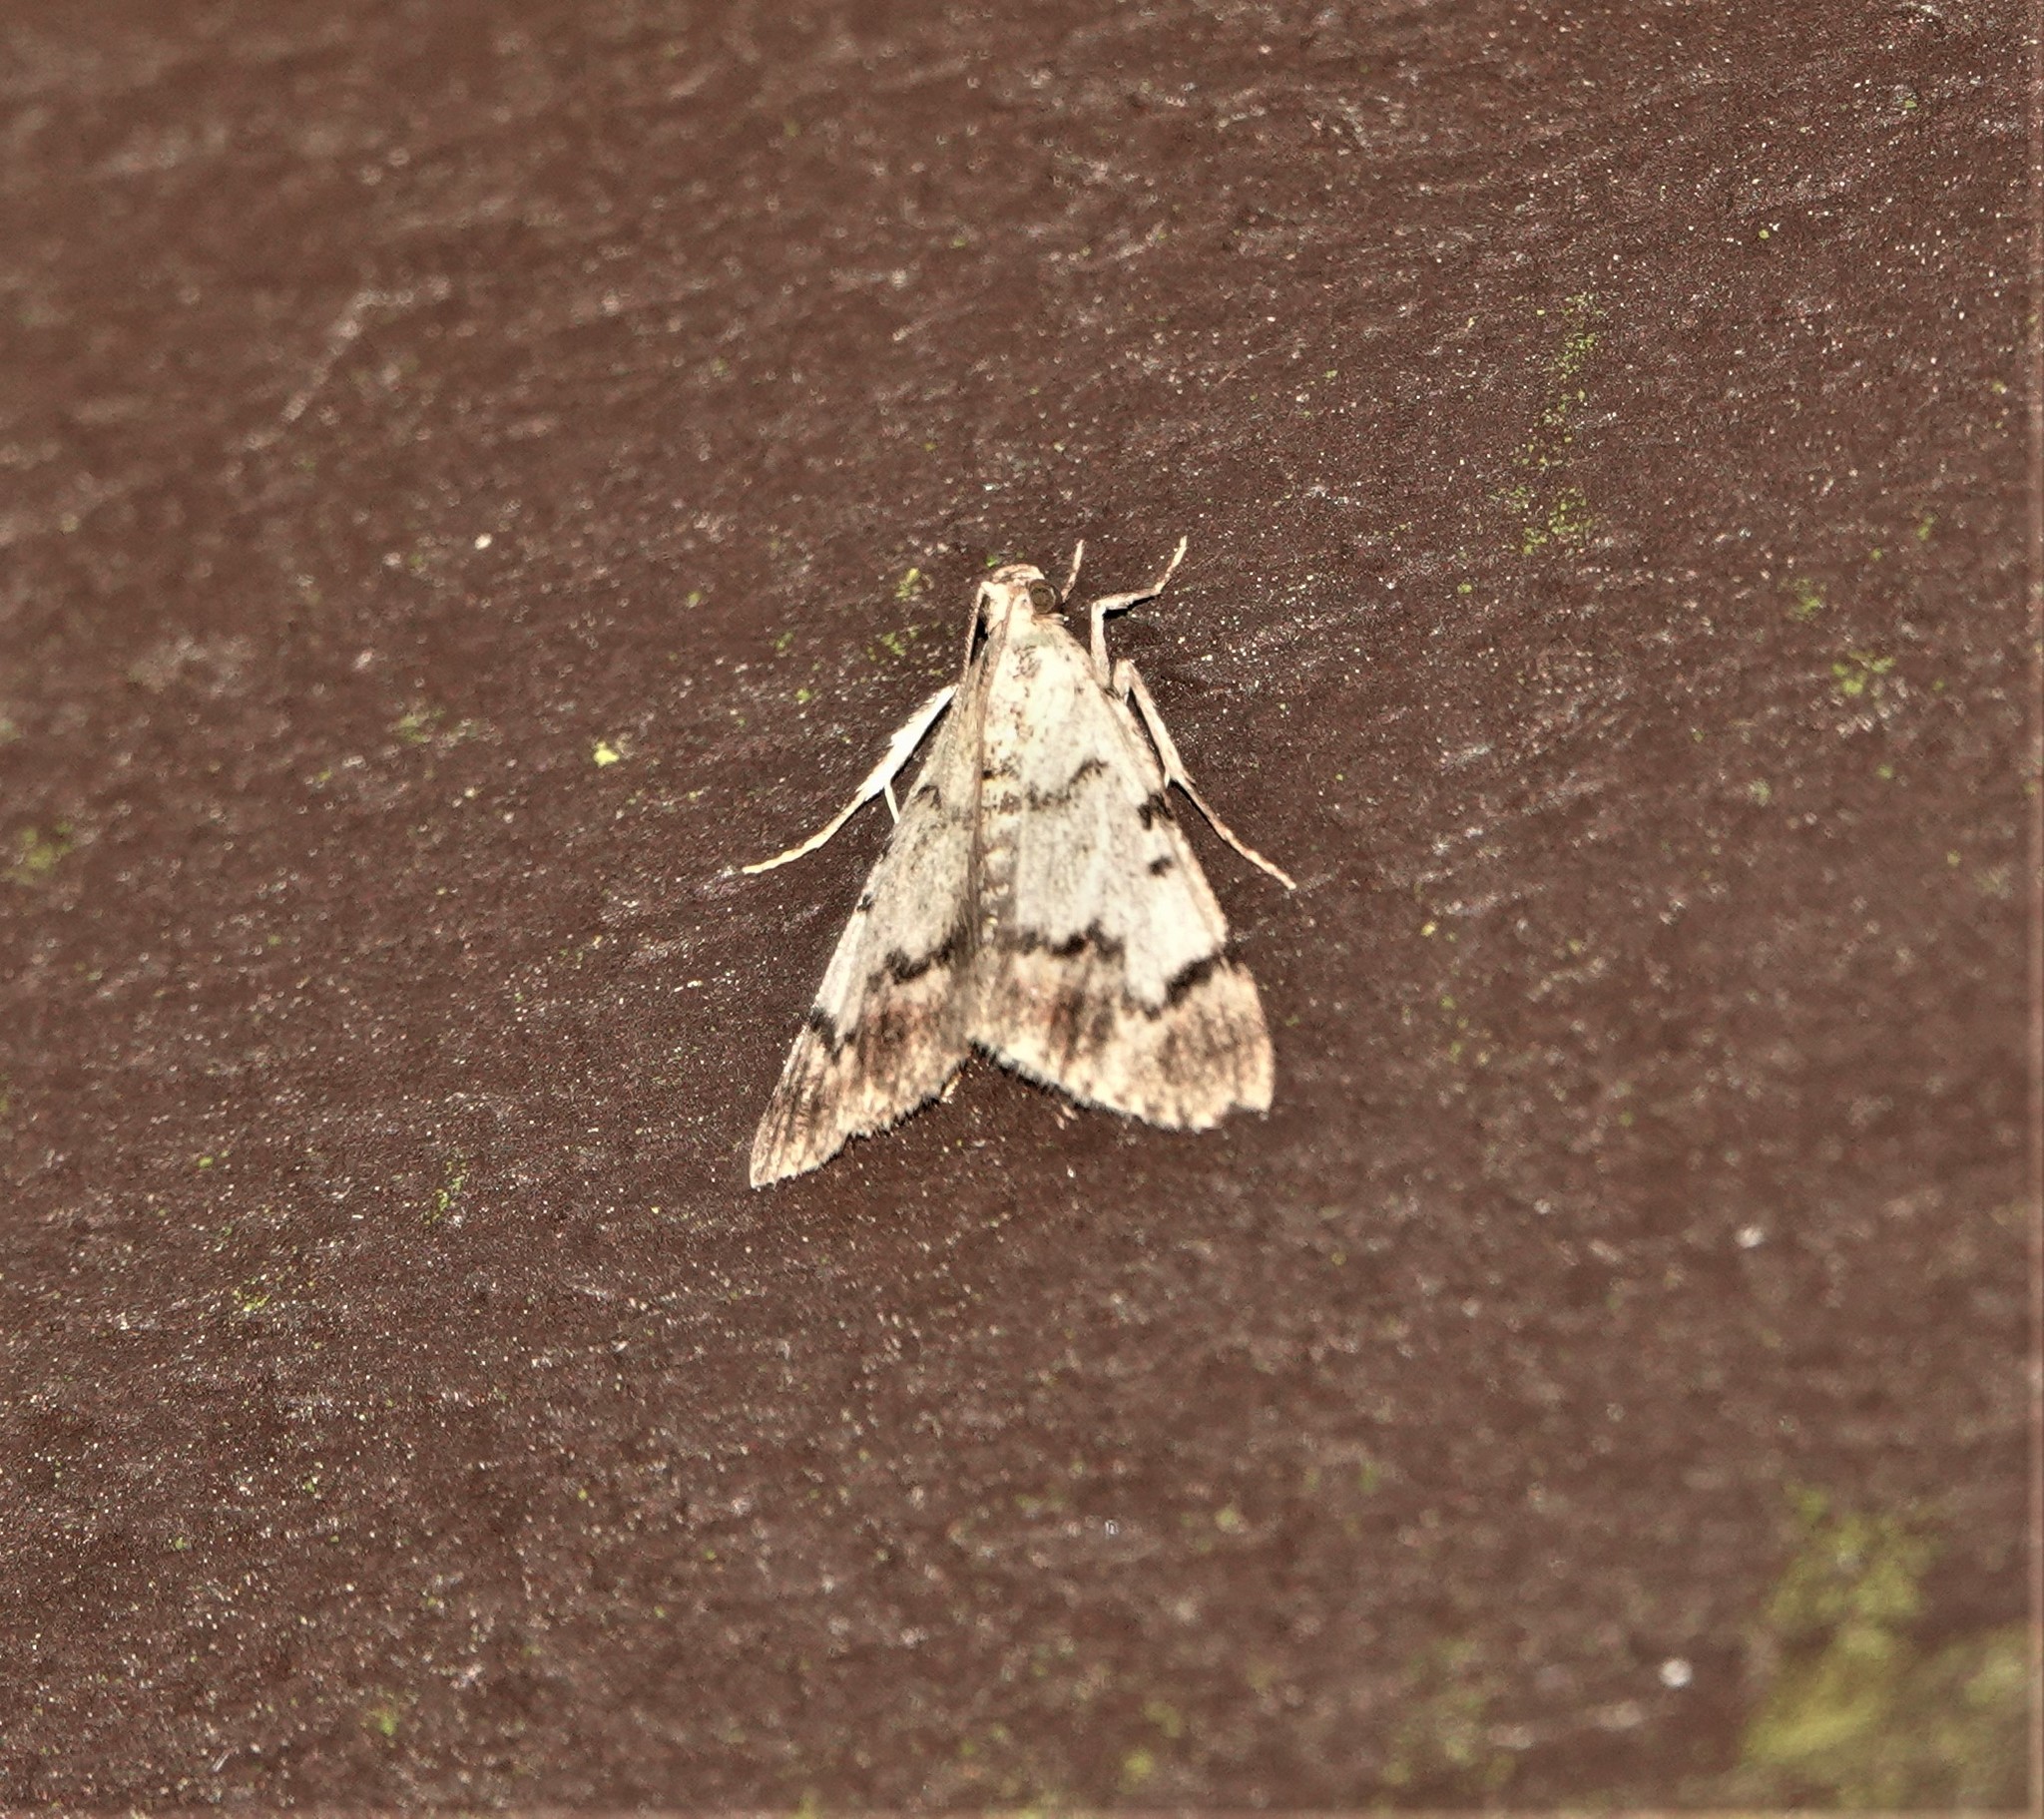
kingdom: Animalia
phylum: Arthropoda
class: Insecta
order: Lepidoptera
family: Pyralidae
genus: Epipaschia
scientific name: Epipaschia superatalis
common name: Dimorphic macalla moth
